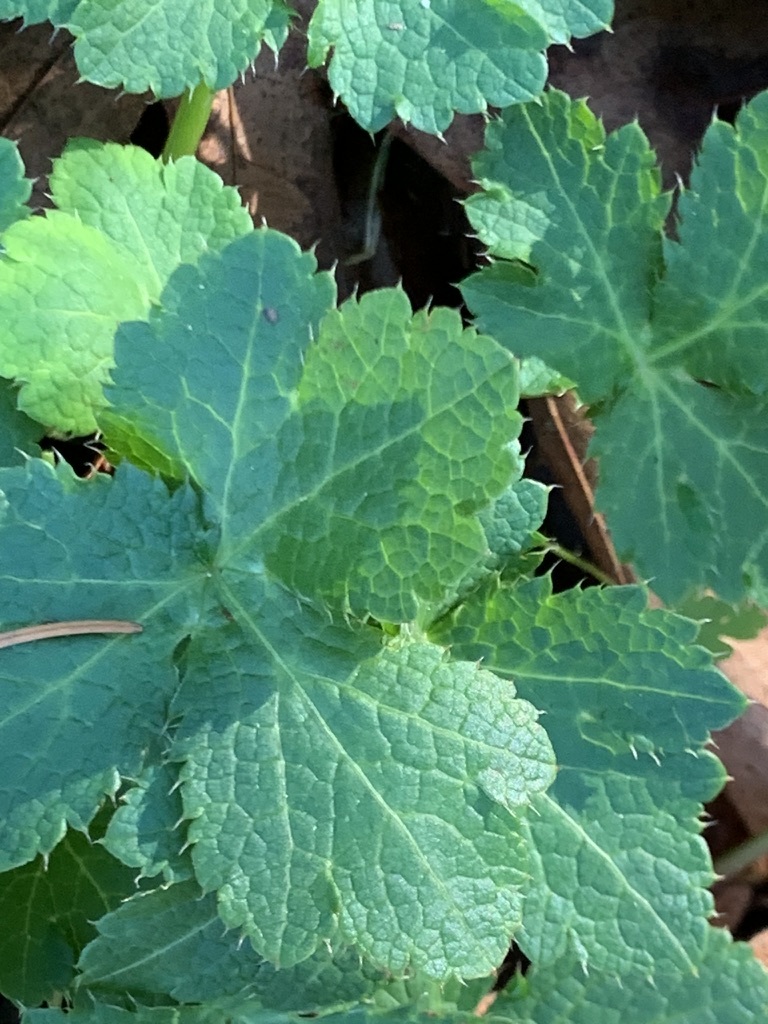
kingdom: Plantae
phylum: Tracheophyta
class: Magnoliopsida
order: Apiales
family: Apiaceae
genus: Sanicula
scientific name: Sanicula crassicaulis
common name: Western snakeroot
